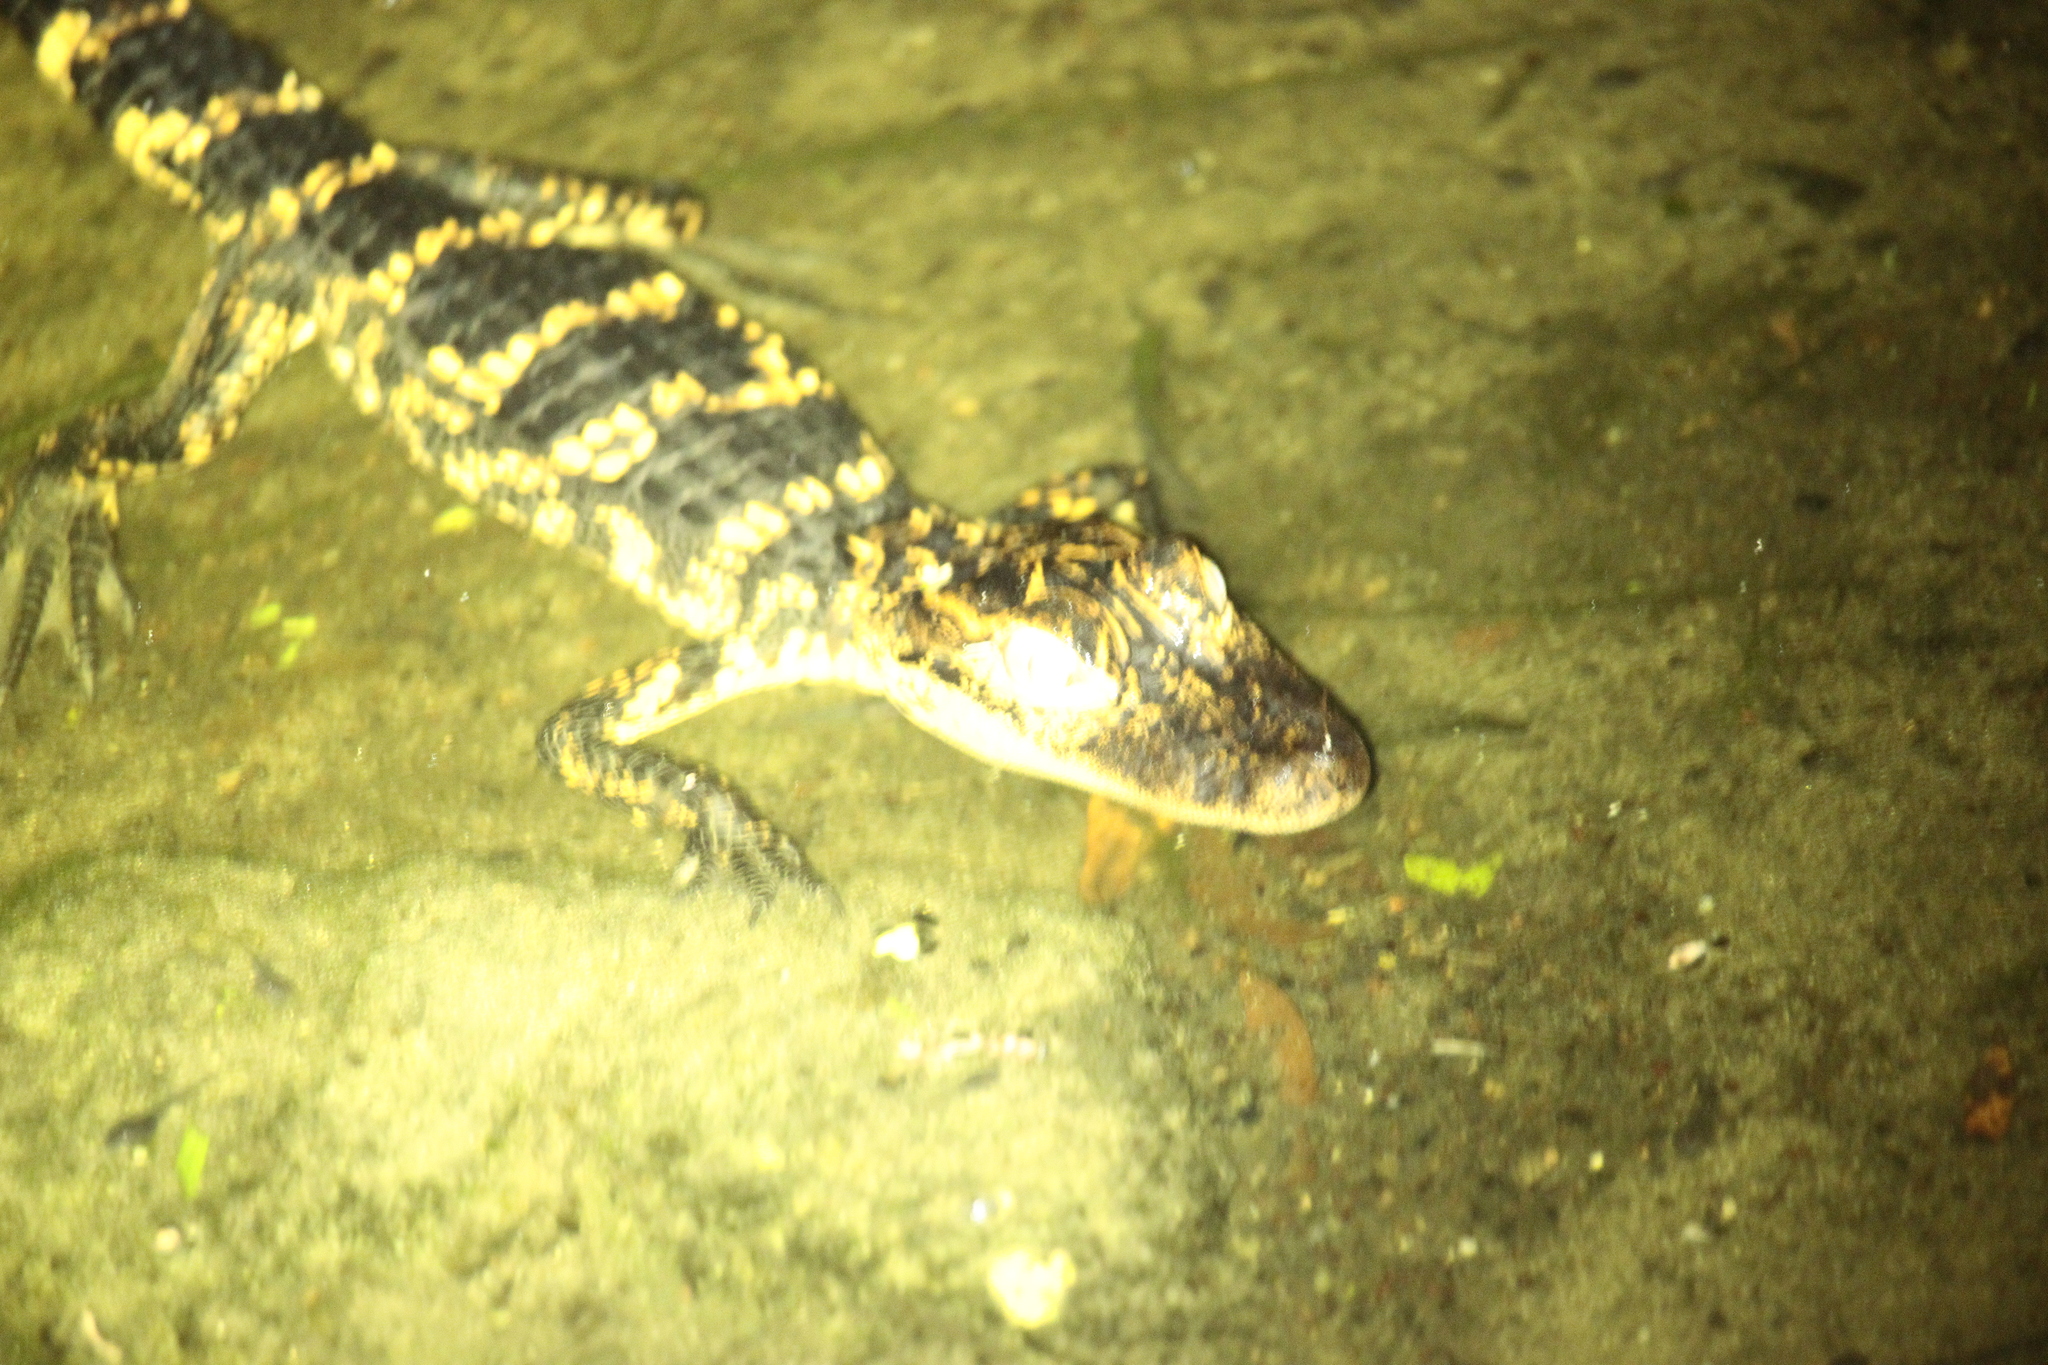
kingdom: Animalia
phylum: Chordata
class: Crocodylia
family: Alligatoridae
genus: Alligator
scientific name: Alligator mississippiensis
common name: American alligator
